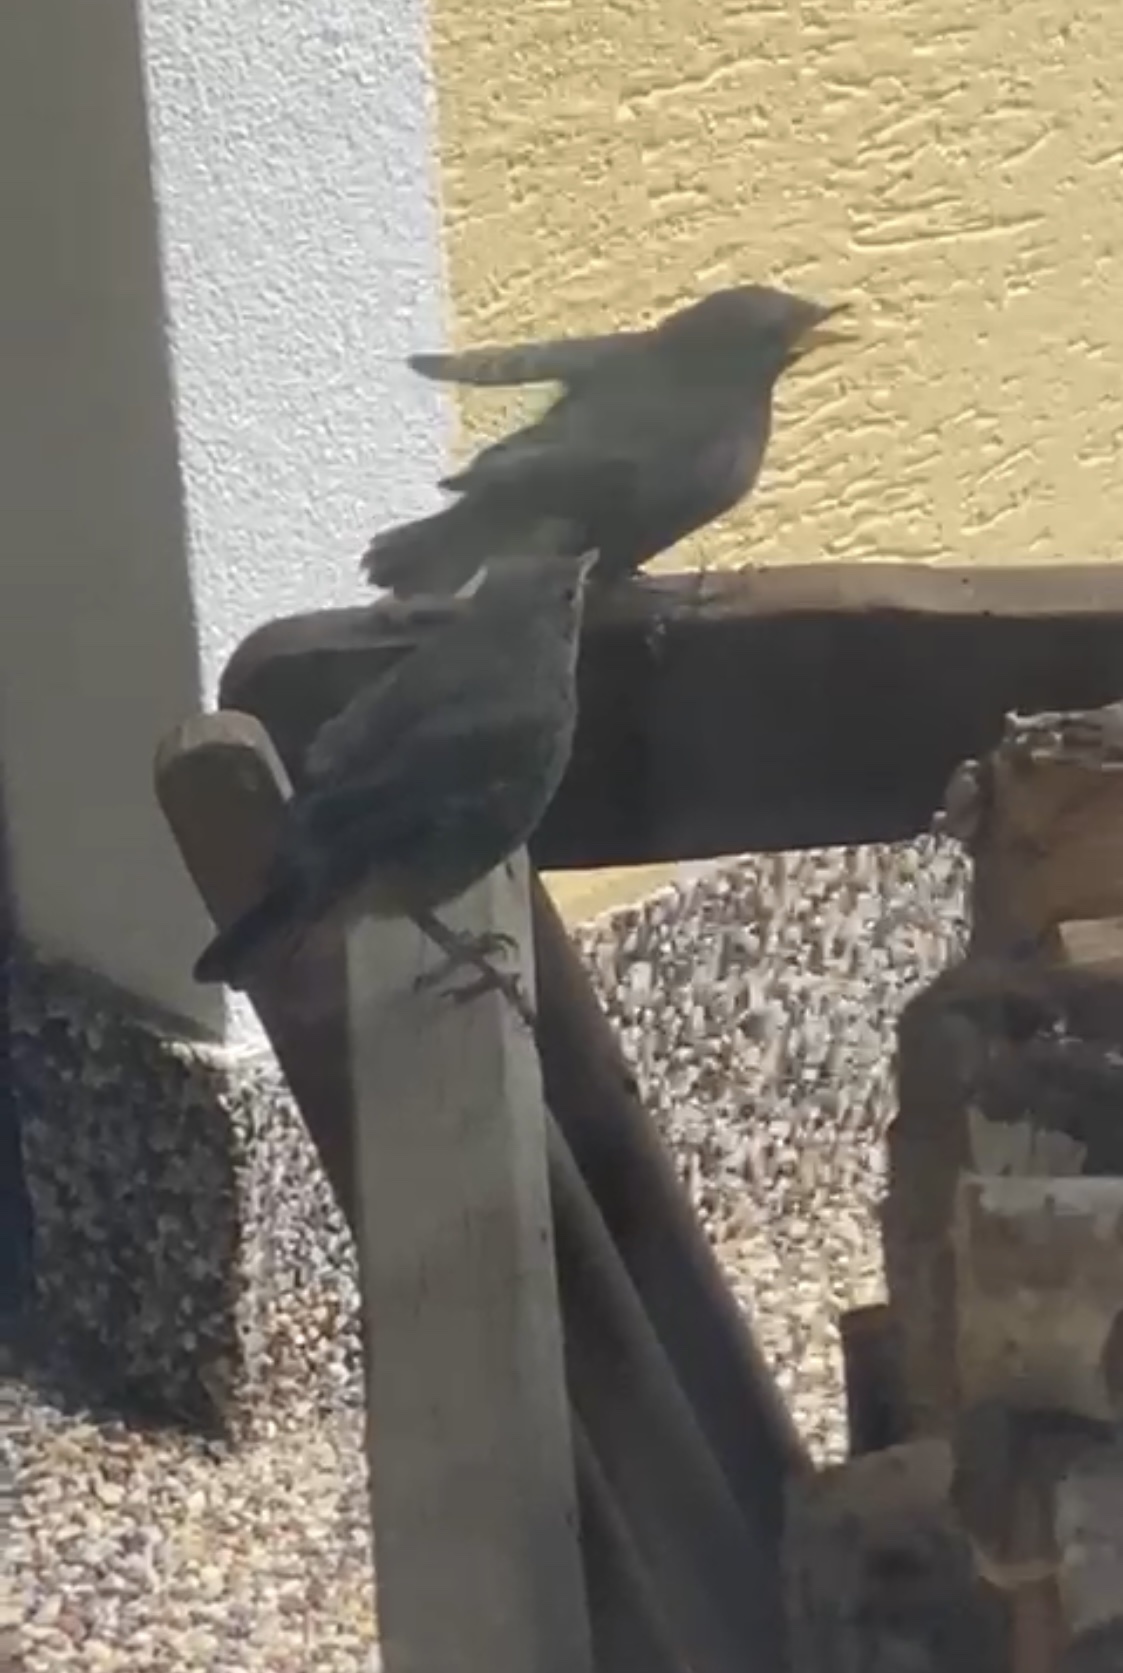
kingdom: Animalia
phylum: Chordata
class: Aves
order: Passeriformes
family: Muscicapidae
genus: Phoenicurus
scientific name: Phoenicurus ochruros
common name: Black redstart
